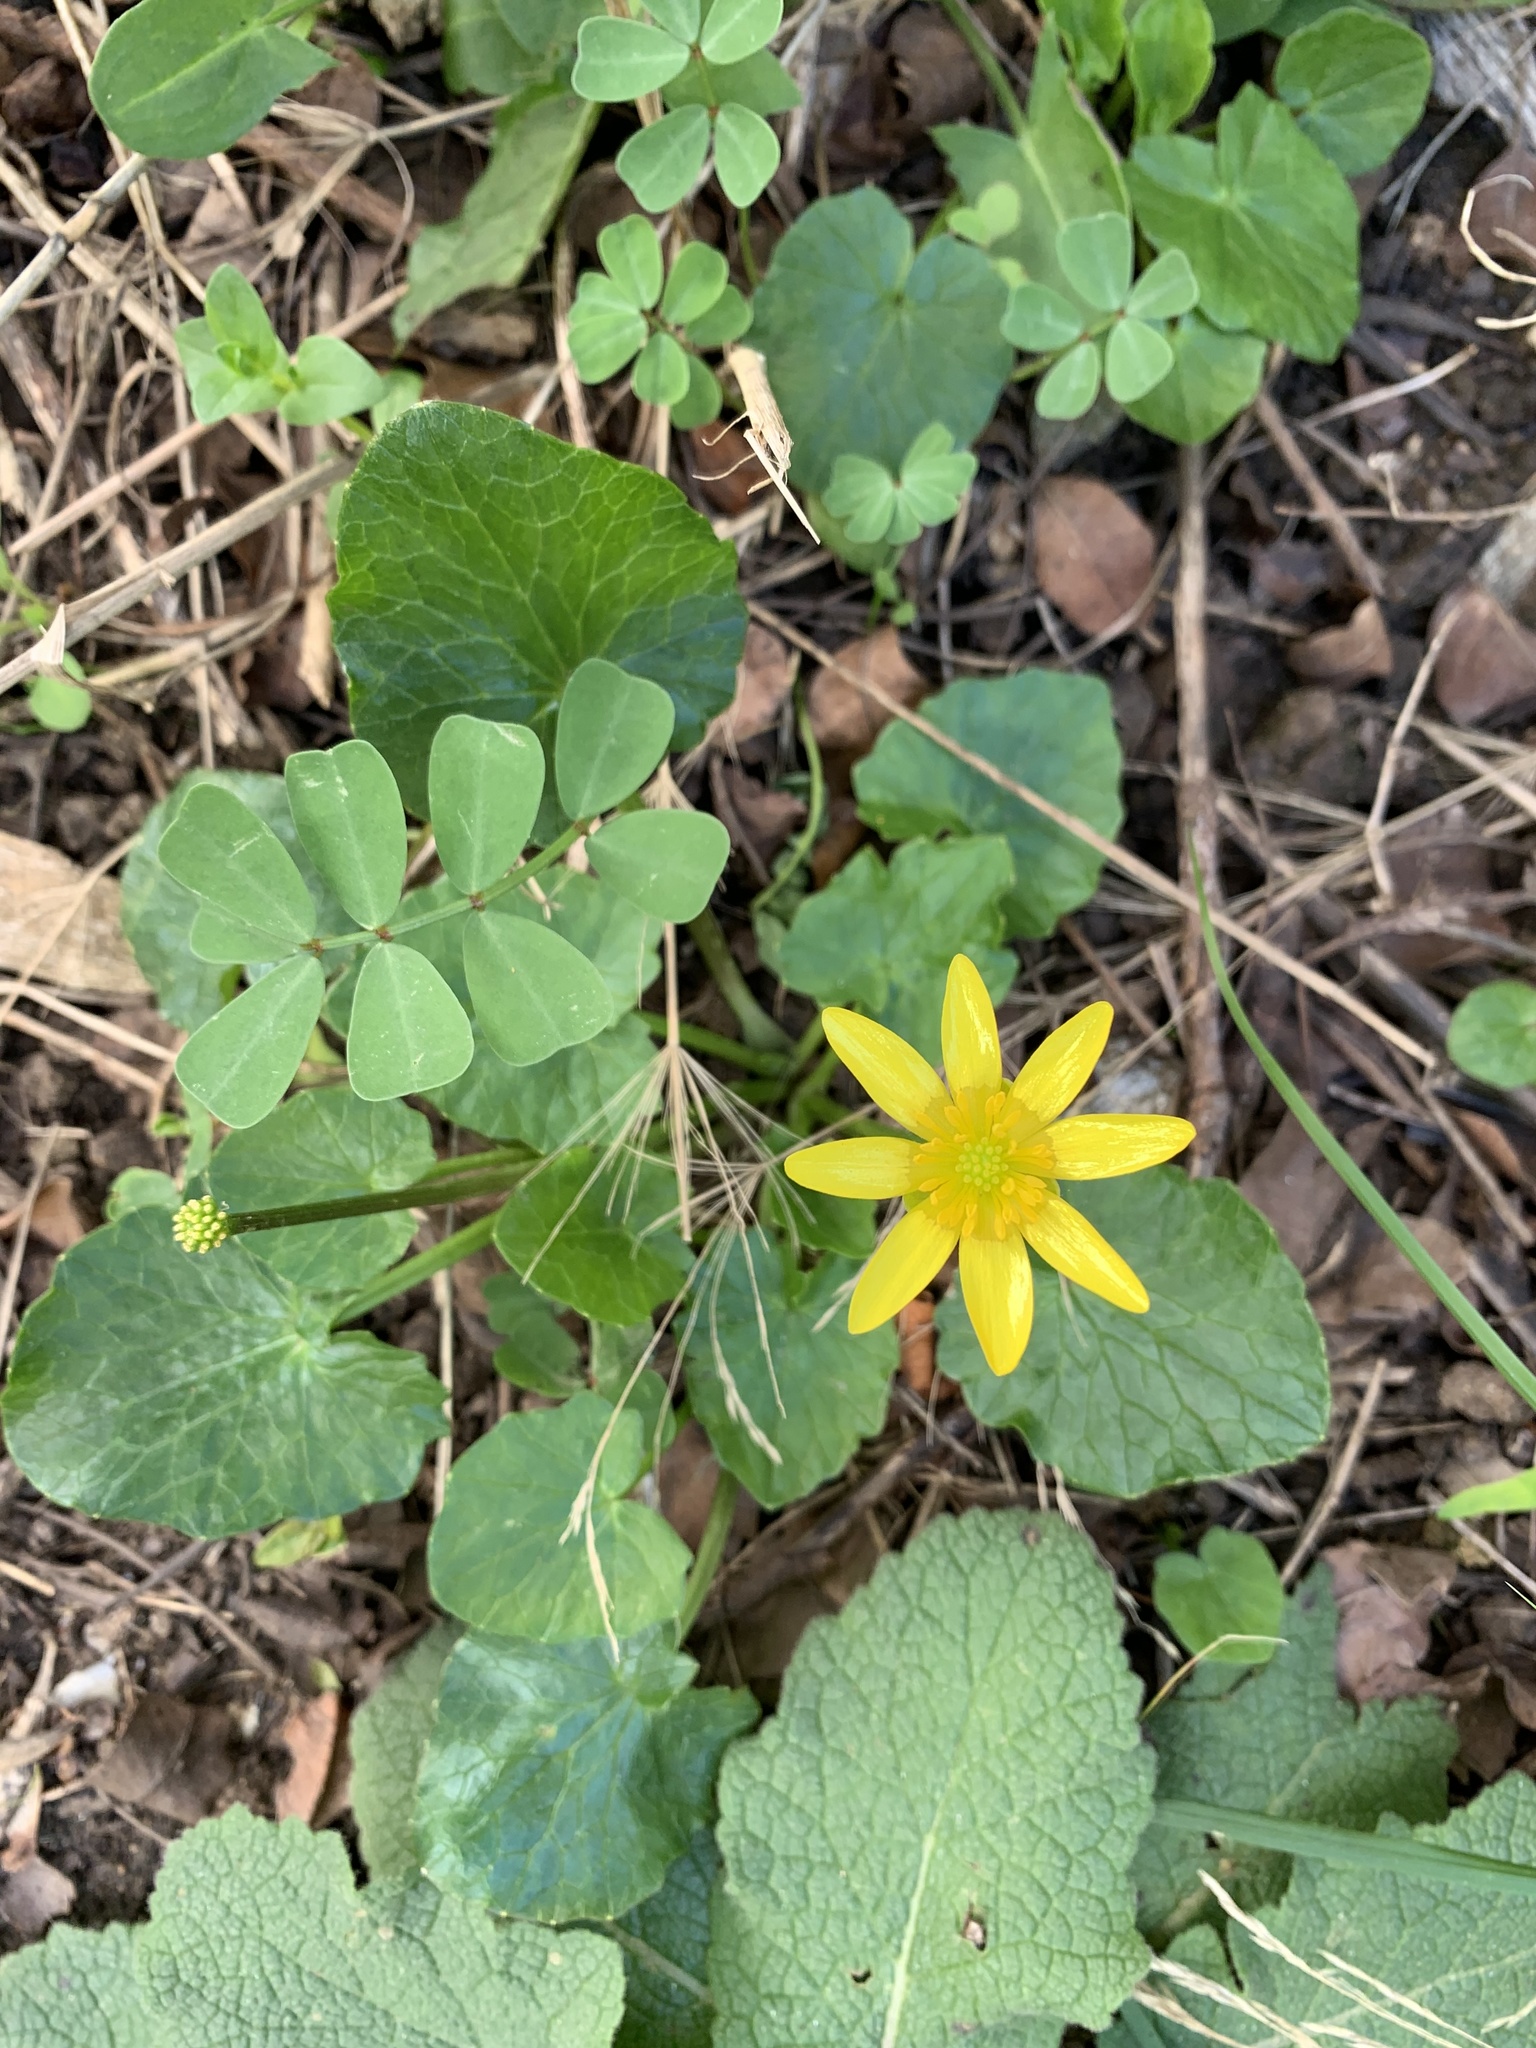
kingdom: Plantae
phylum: Tracheophyta
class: Magnoliopsida
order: Ranunculales
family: Ranunculaceae
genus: Ficaria
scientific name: Ficaria verna
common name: Lesser celandine
